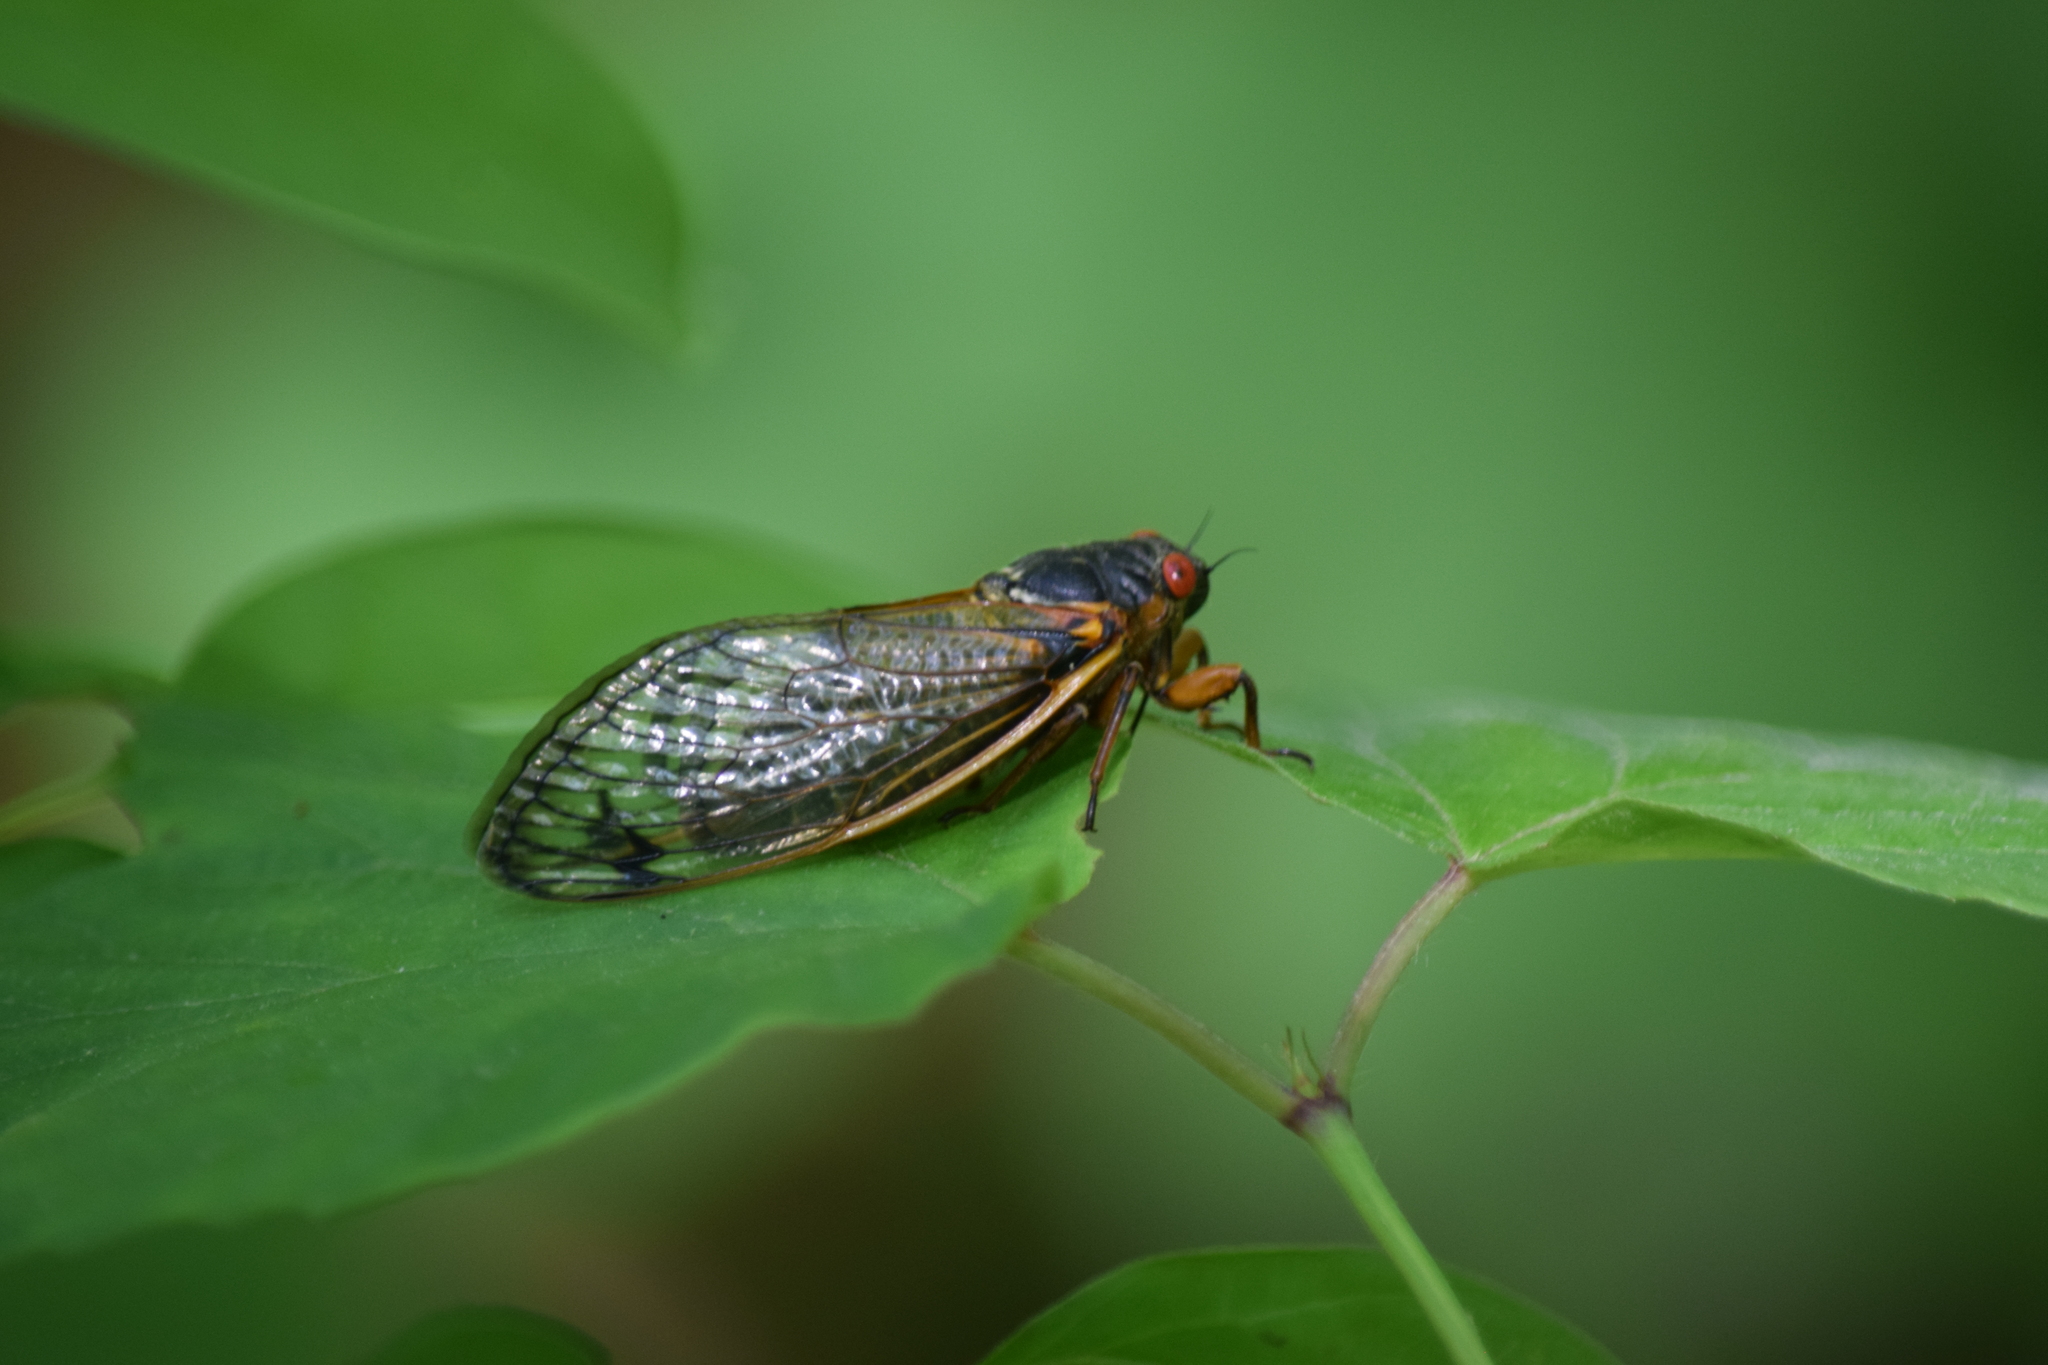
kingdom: Animalia
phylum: Arthropoda
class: Insecta
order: Hemiptera
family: Cicadidae
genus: Magicicada
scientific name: Magicicada septendecim
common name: Periodical cicada
